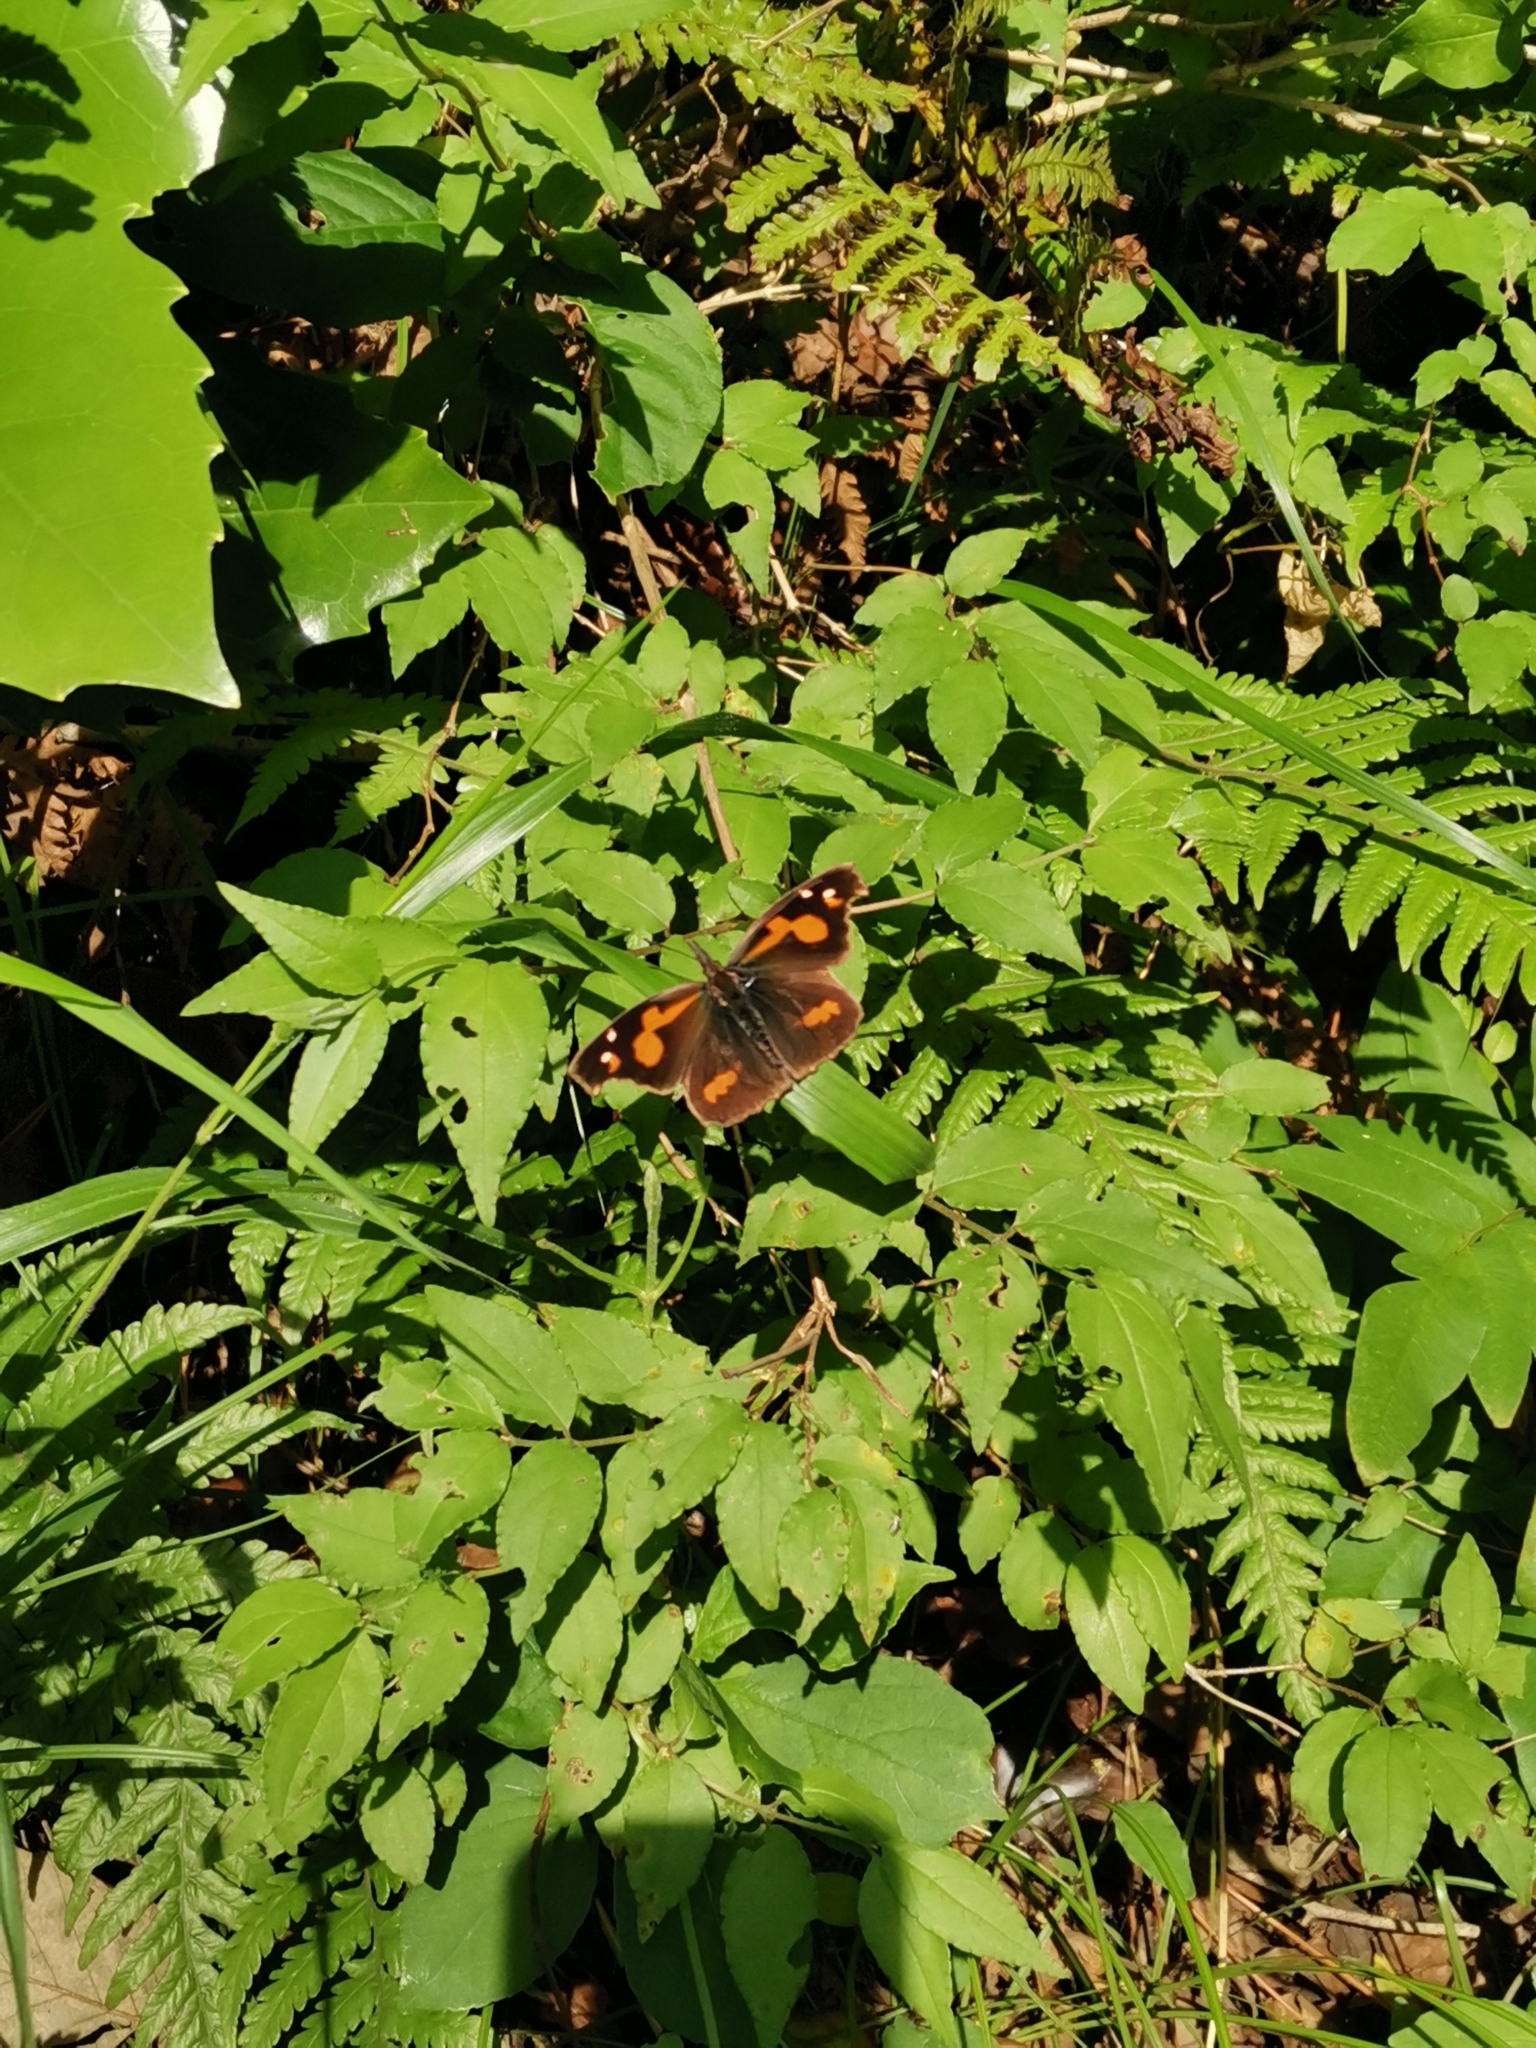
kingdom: Animalia
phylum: Arthropoda
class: Insecta
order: Lepidoptera
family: Nymphalidae
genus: Libythea
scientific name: Libythea lepita
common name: Common beak
